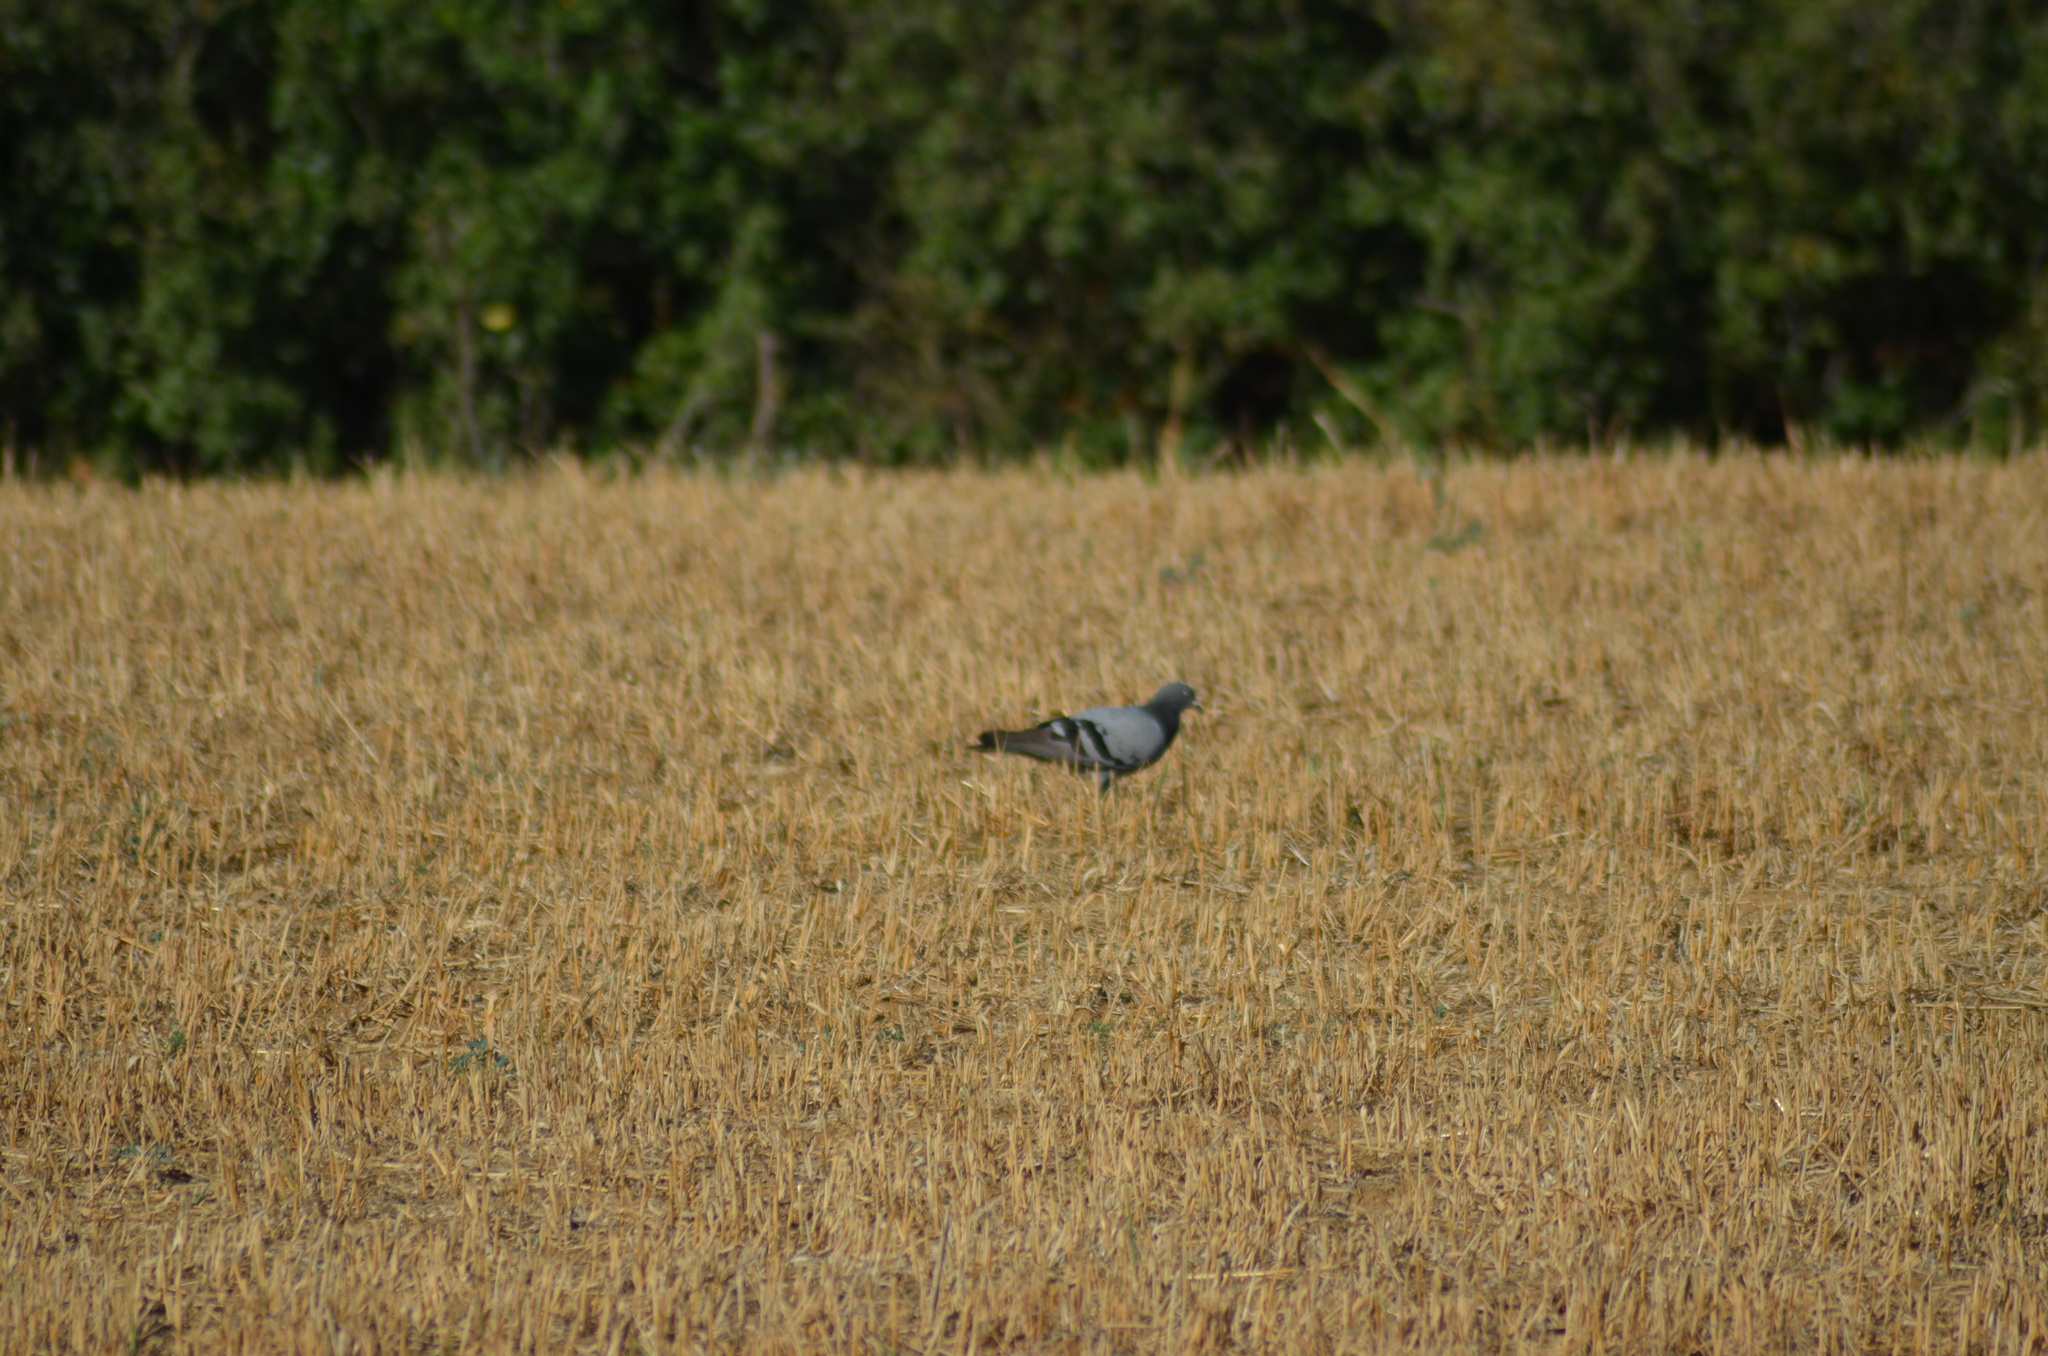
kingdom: Animalia
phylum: Chordata
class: Aves
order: Columbiformes
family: Columbidae
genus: Columba
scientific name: Columba livia
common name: Rock pigeon
